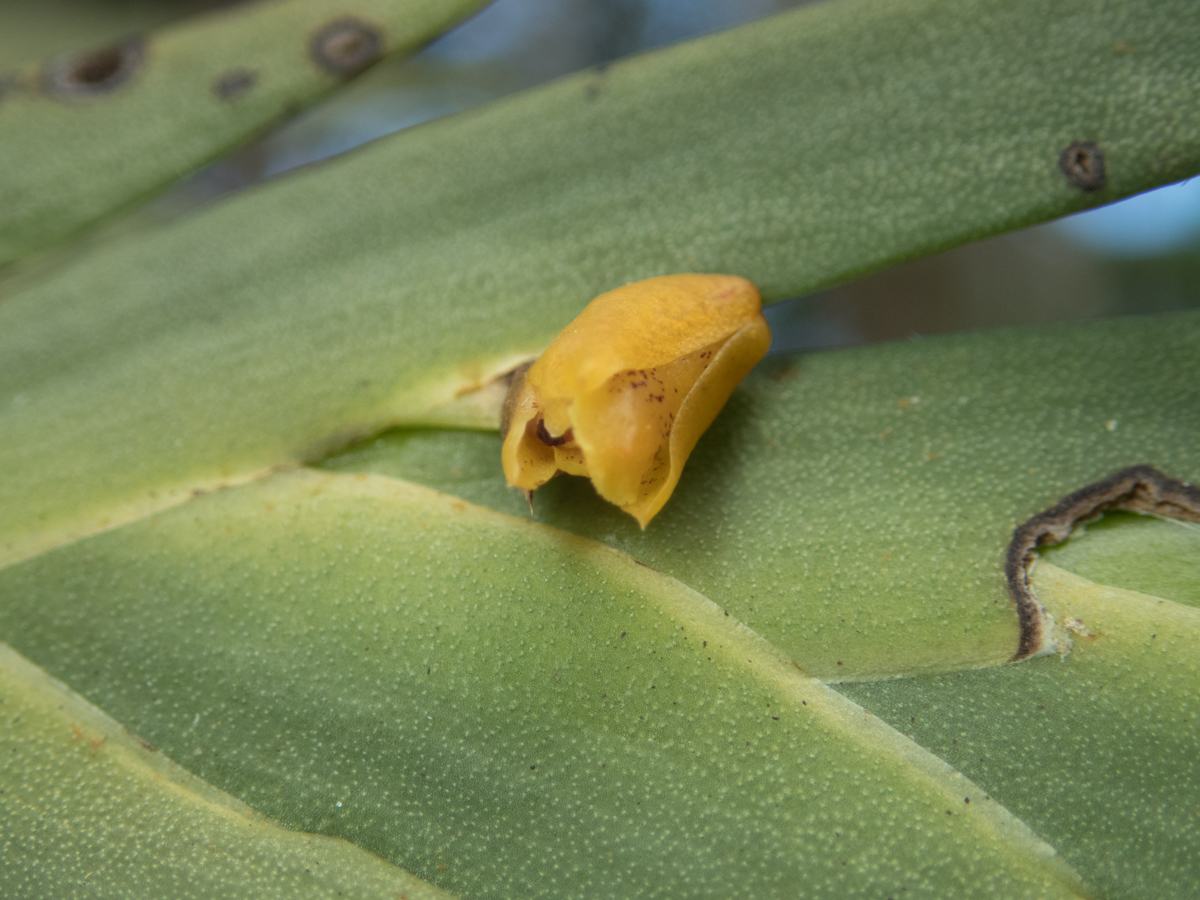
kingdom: Plantae
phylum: Tracheophyta
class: Liliopsida
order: Asparagales
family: Orchidaceae
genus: Oxystophyllum
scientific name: Oxystophyllum carnosum
